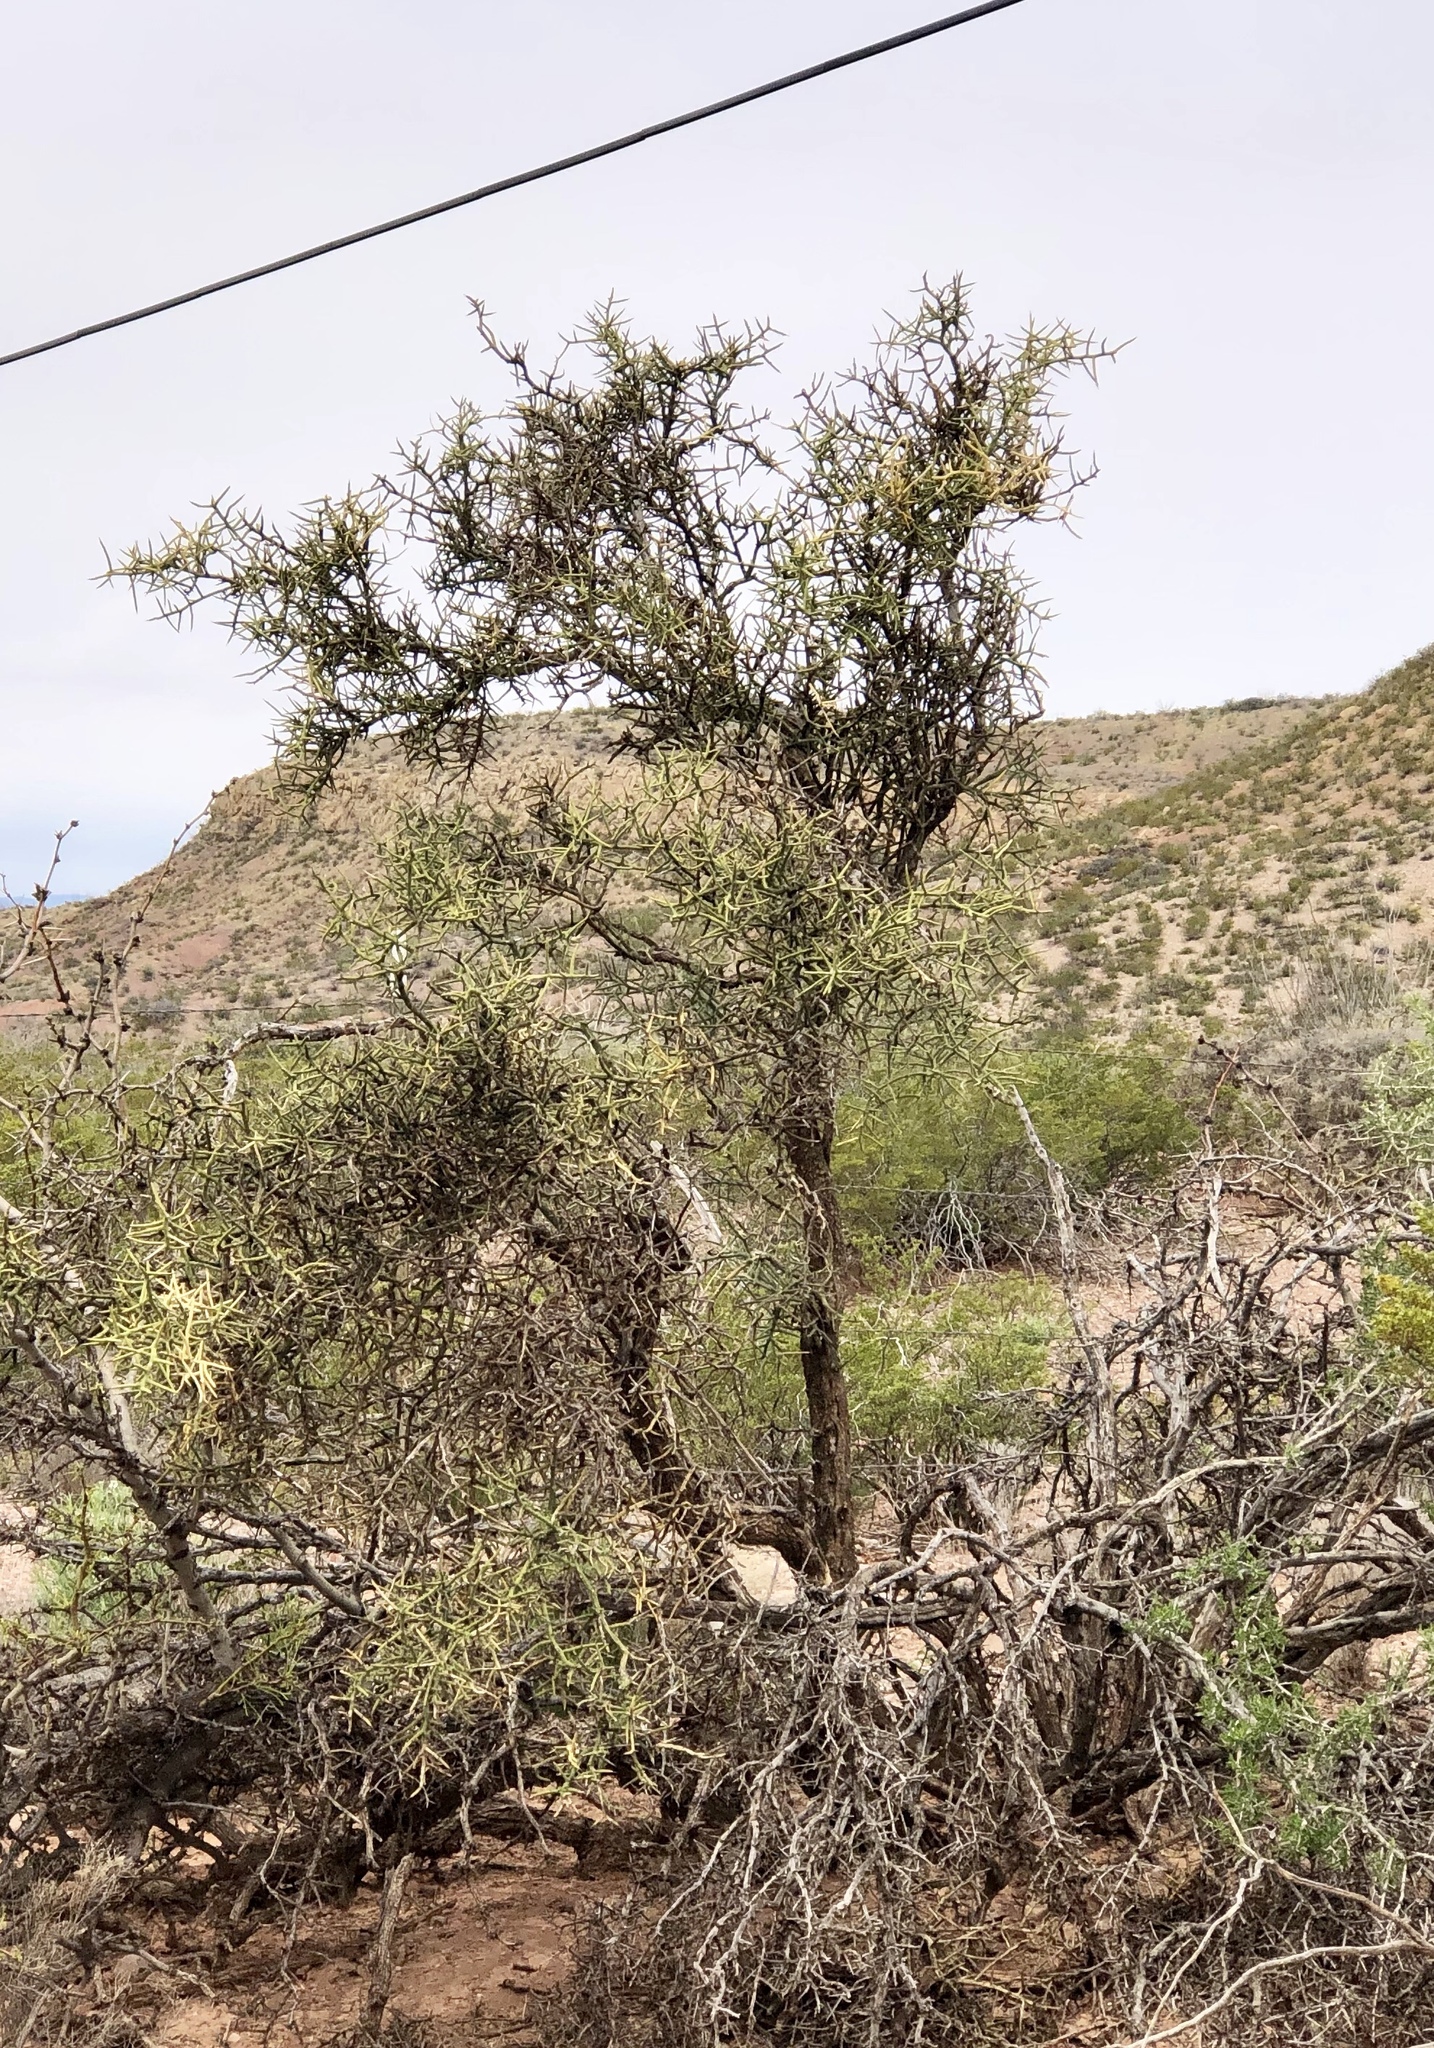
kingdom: Plantae
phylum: Tracheophyta
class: Magnoliopsida
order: Brassicales
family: Koeberliniaceae
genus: Koeberlinia
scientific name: Koeberlinia spinosa
